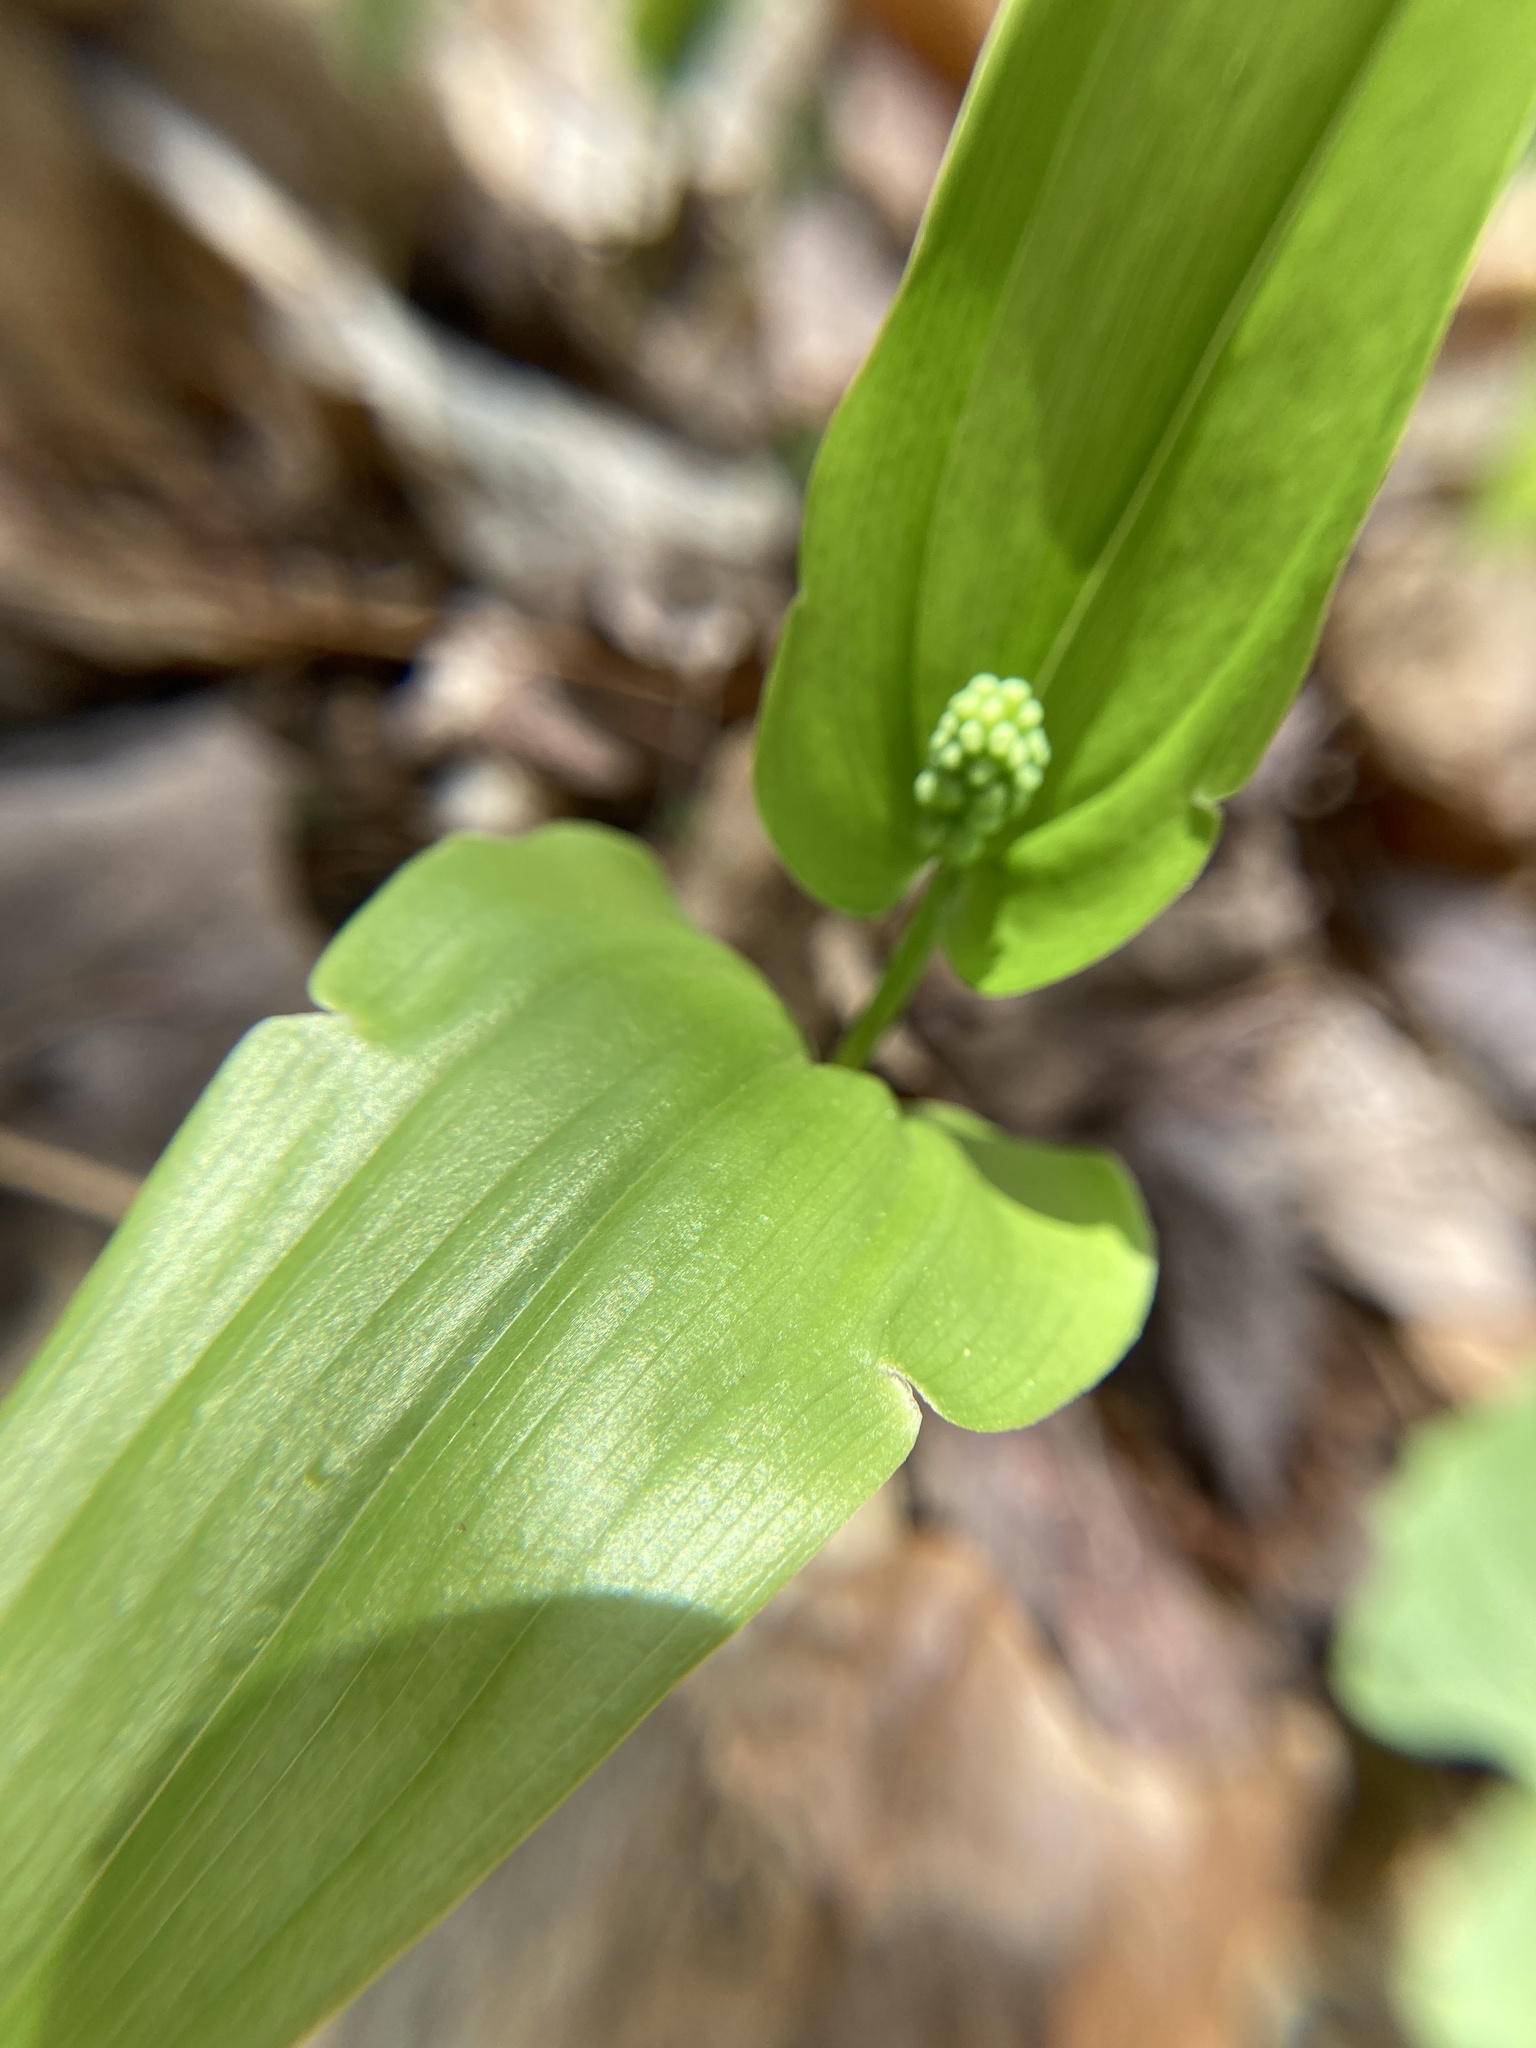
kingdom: Plantae
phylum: Tracheophyta
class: Liliopsida
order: Asparagales
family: Asparagaceae
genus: Maianthemum
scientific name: Maianthemum canadense
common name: False lily-of-the-valley
